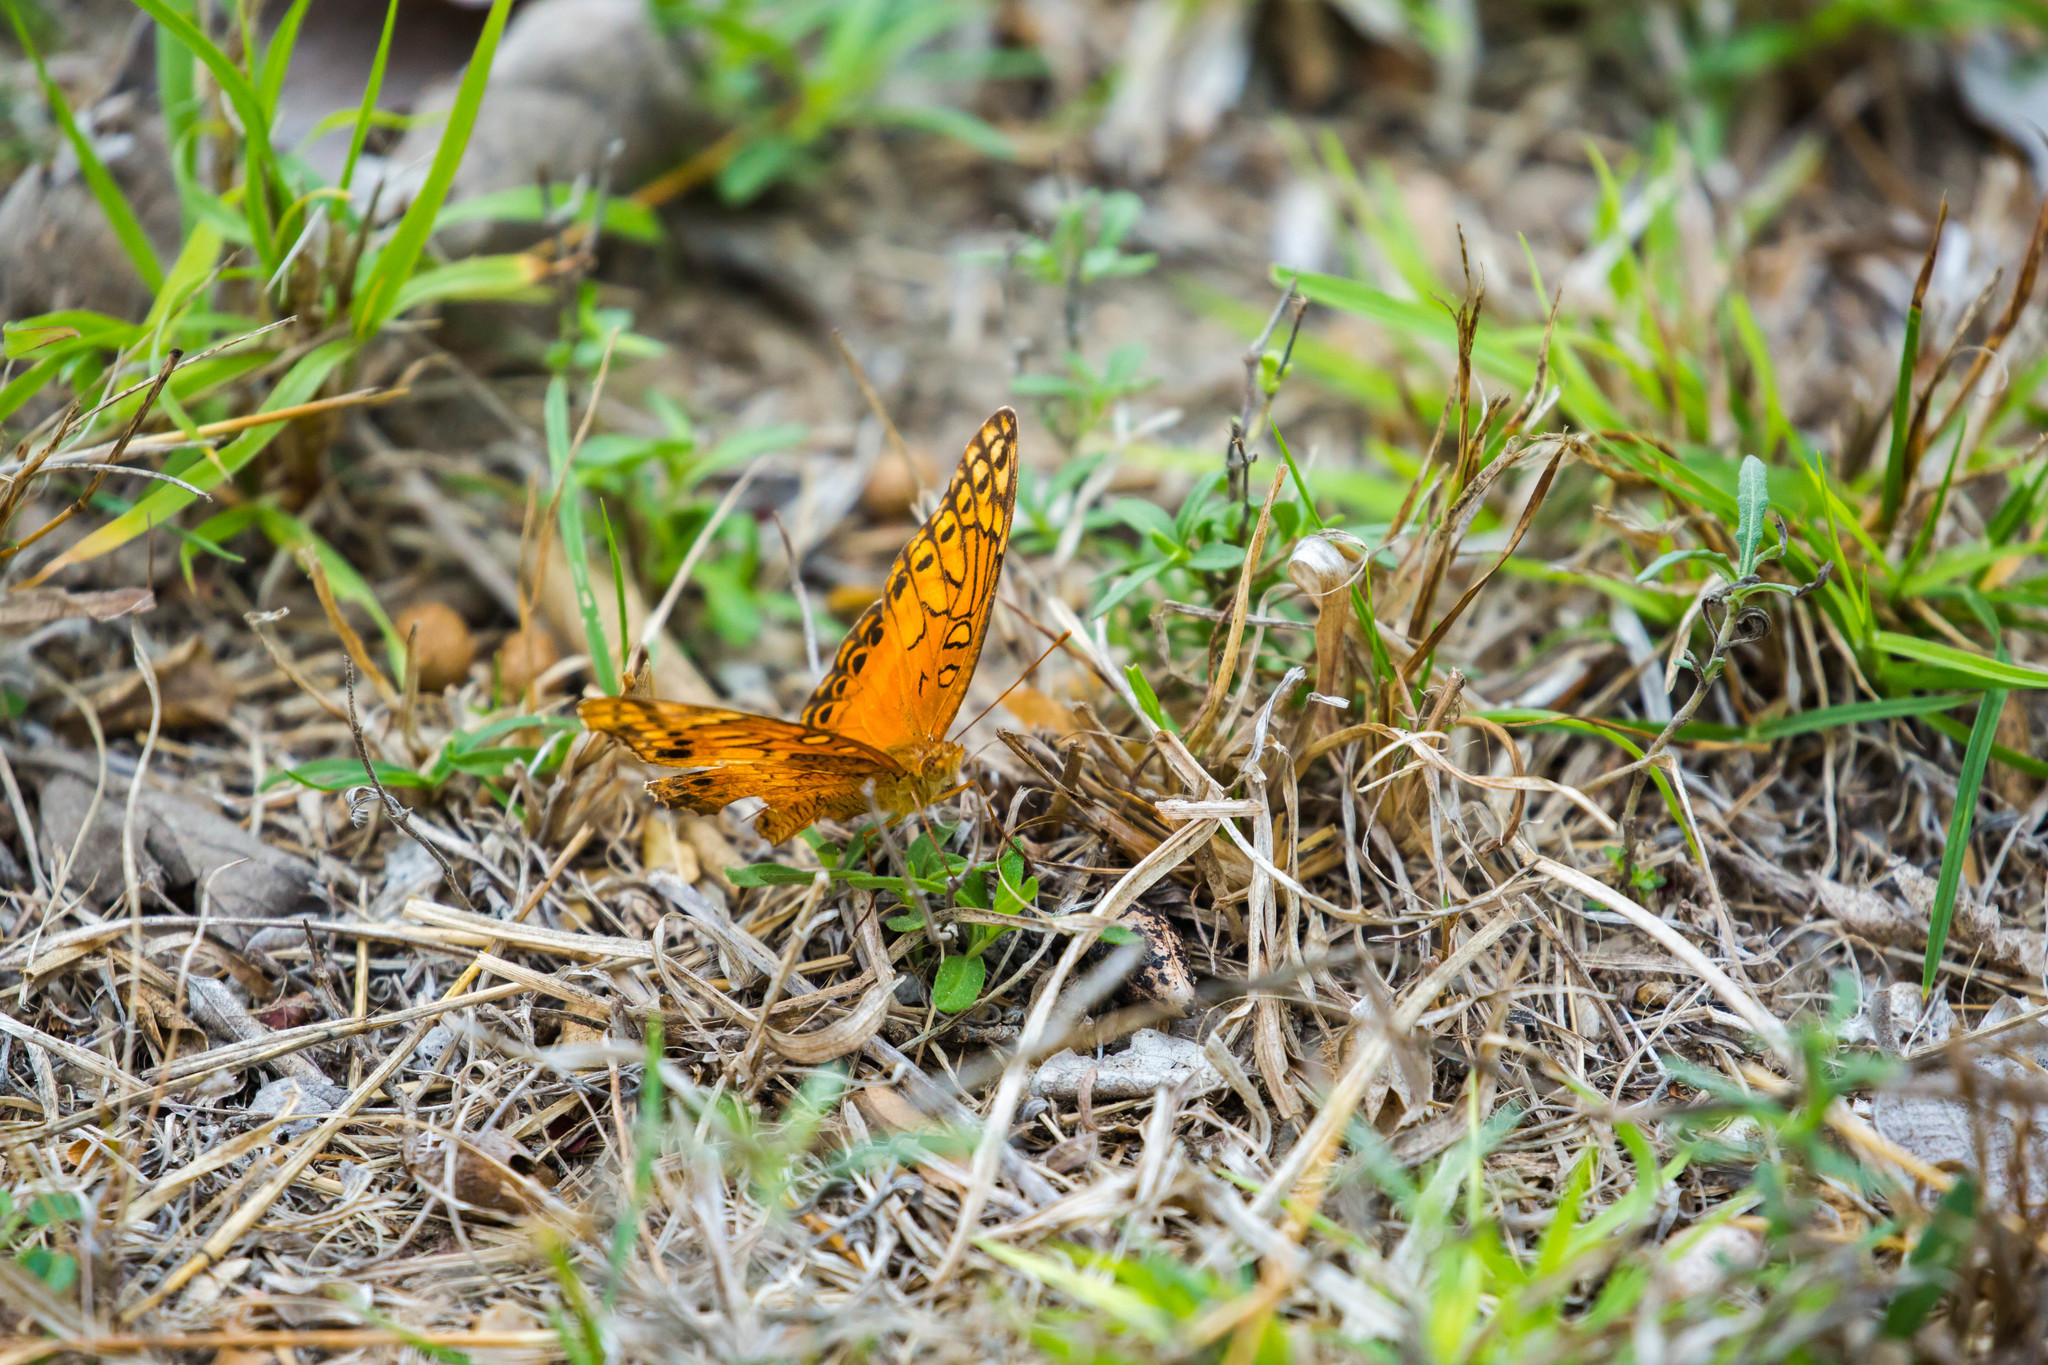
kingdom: Animalia
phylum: Arthropoda
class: Insecta
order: Lepidoptera
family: Nymphalidae
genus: Euptoieta
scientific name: Euptoieta hegesia
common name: Mexican fritillary
